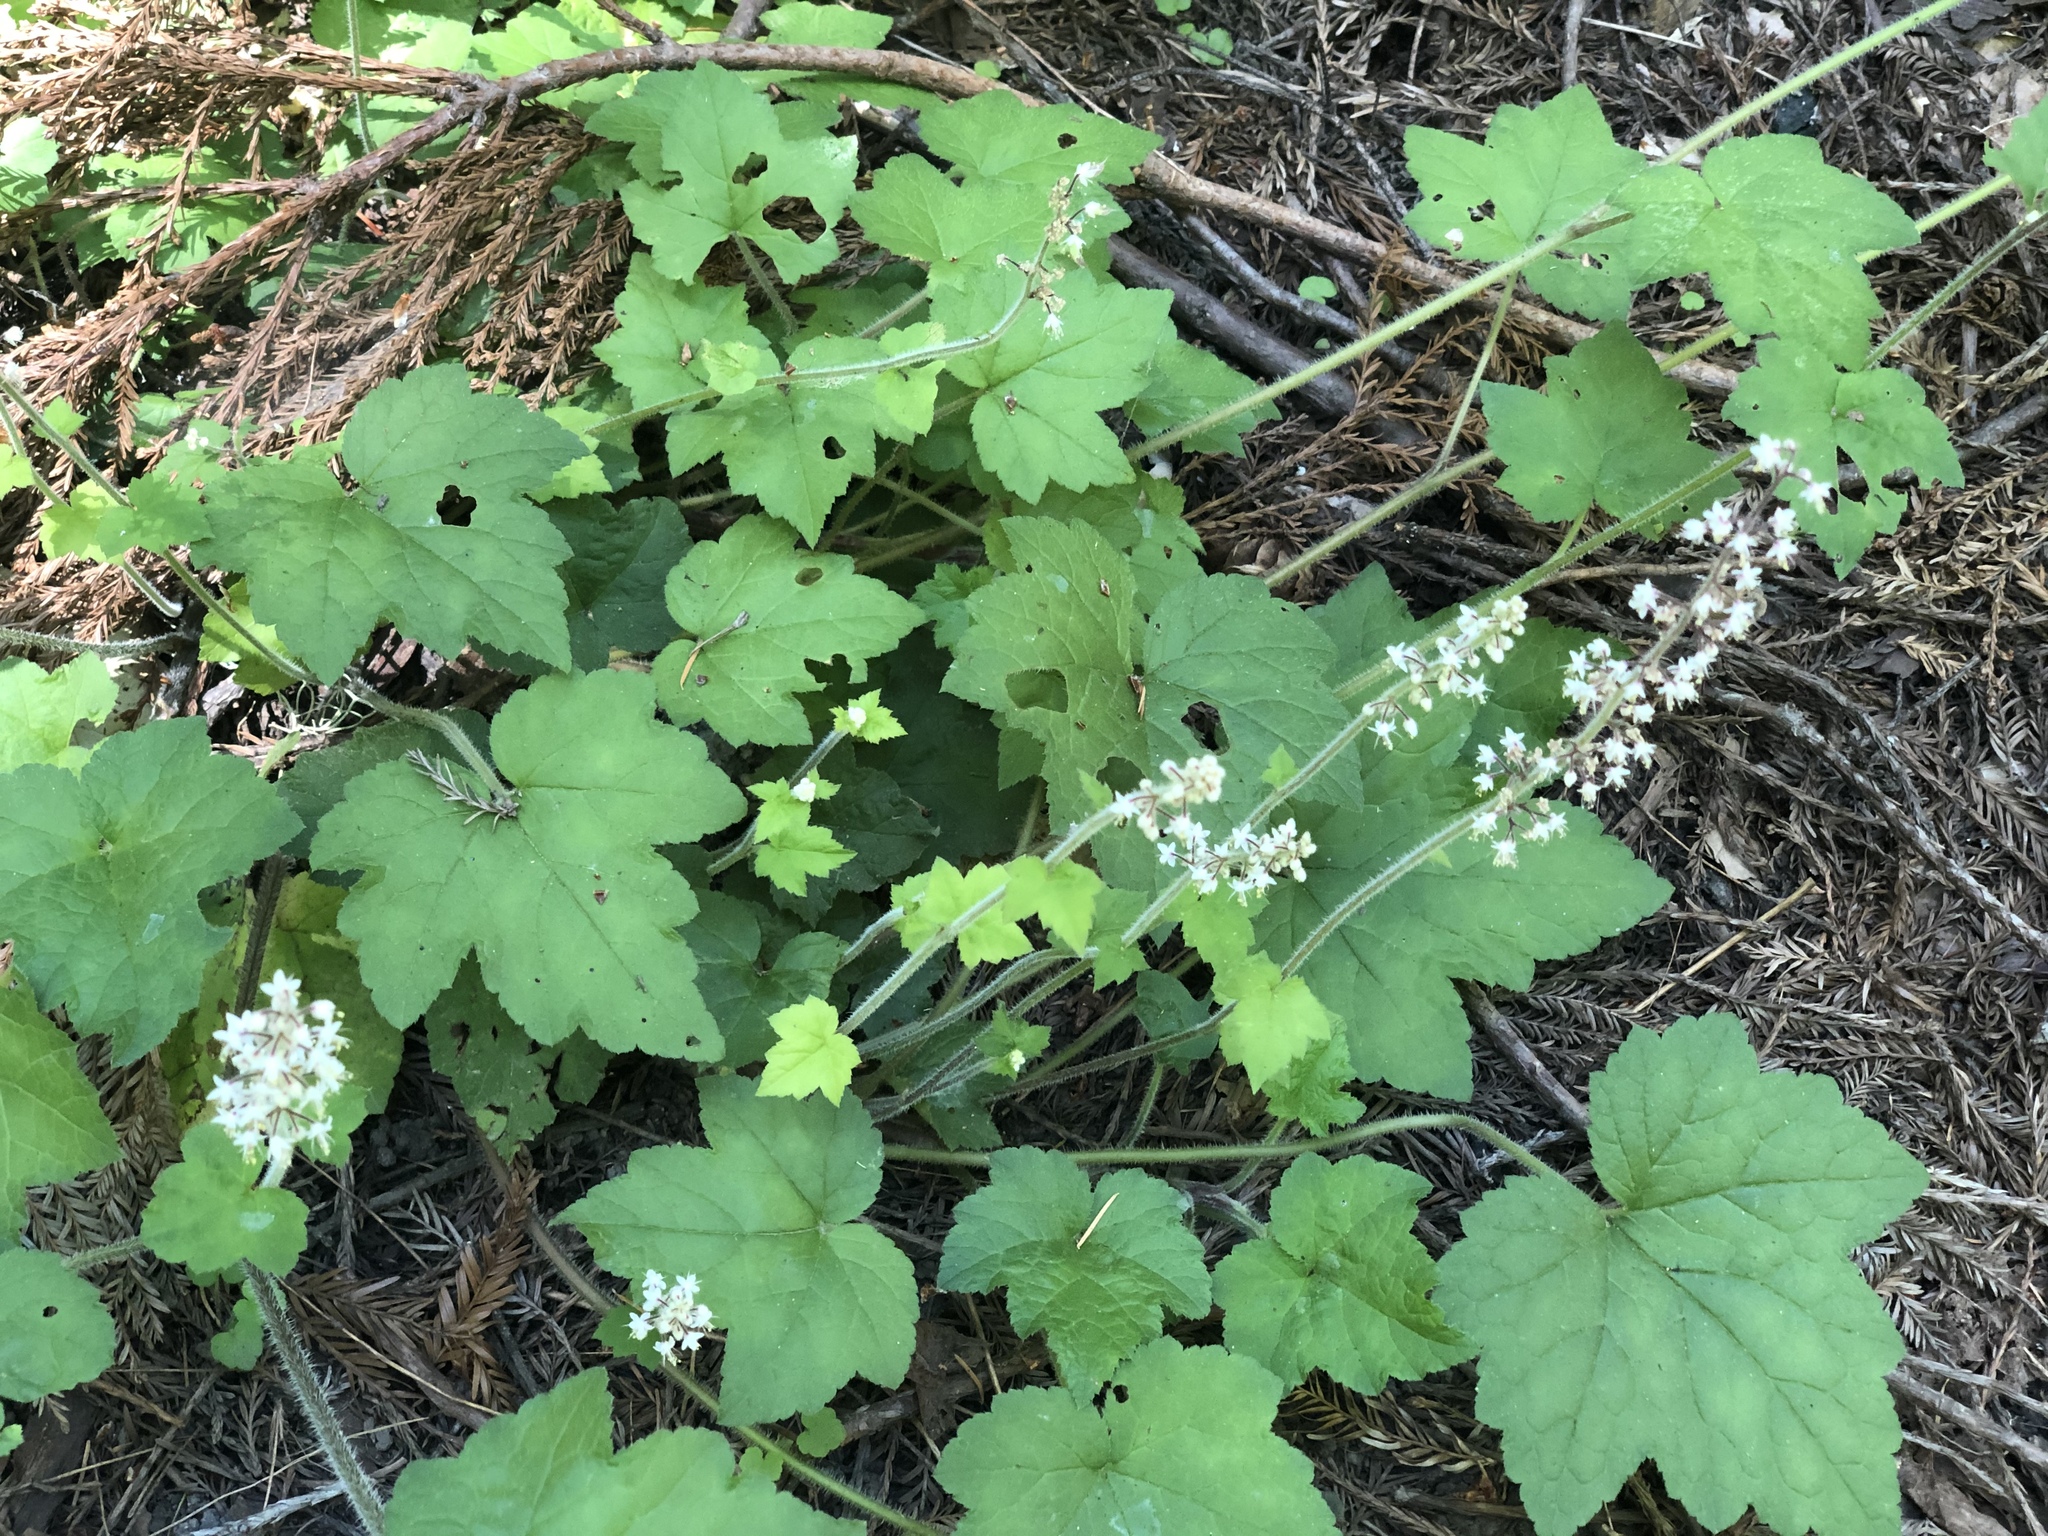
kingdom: Plantae
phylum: Tracheophyta
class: Magnoliopsida
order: Saxifragales
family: Saxifragaceae
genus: Tiarella
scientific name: Tiarella trifoliata
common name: Sugar-scoop
